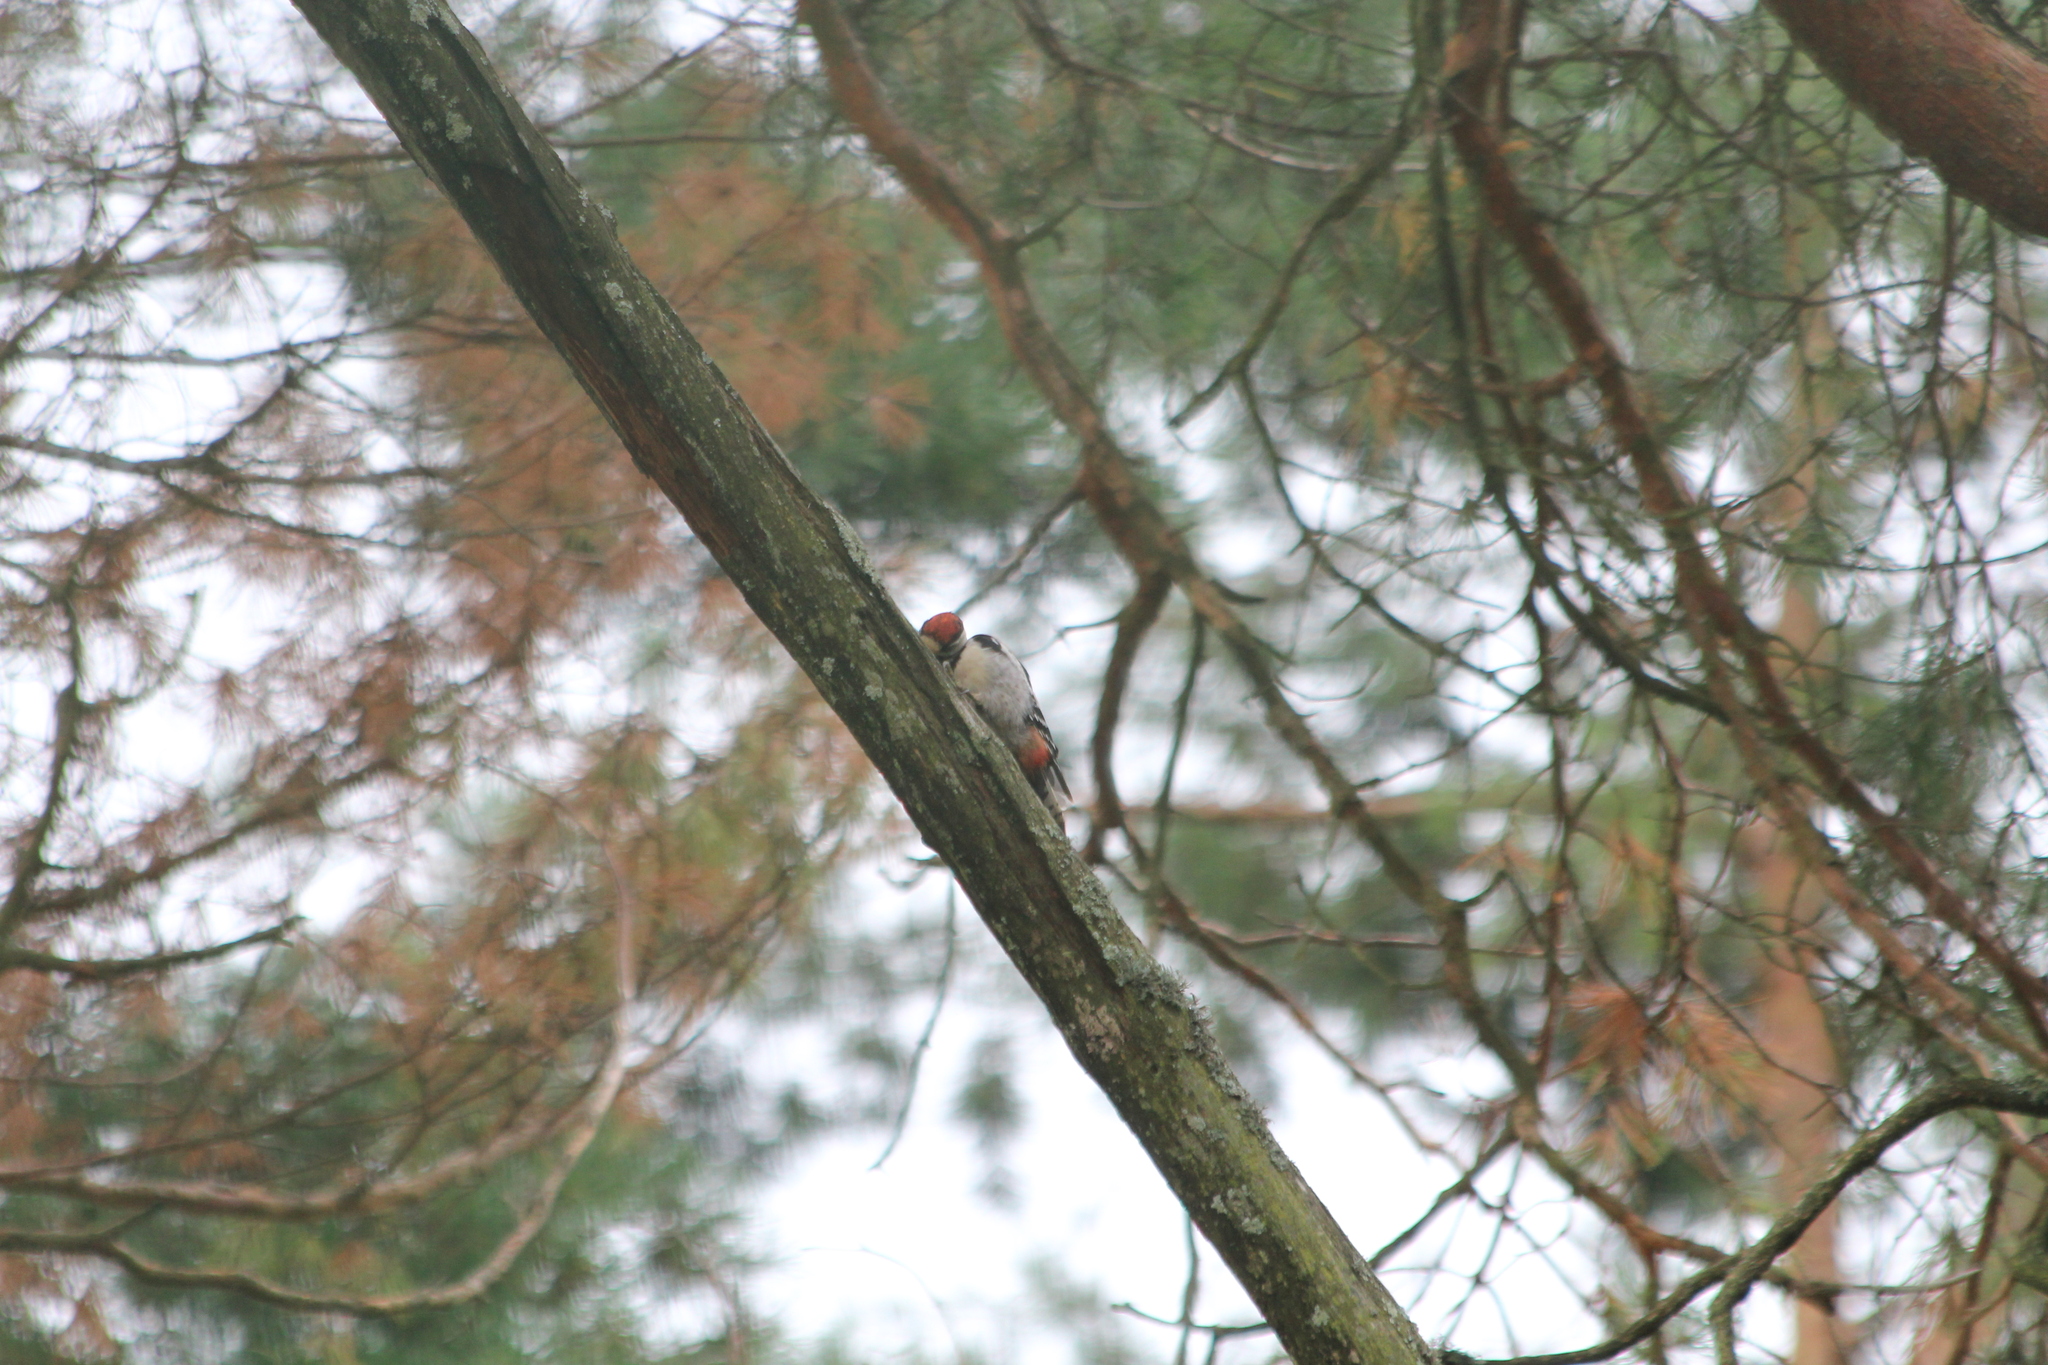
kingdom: Animalia
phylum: Chordata
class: Aves
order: Piciformes
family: Picidae
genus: Dendrocopos
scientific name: Dendrocopos major
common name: Great spotted woodpecker
